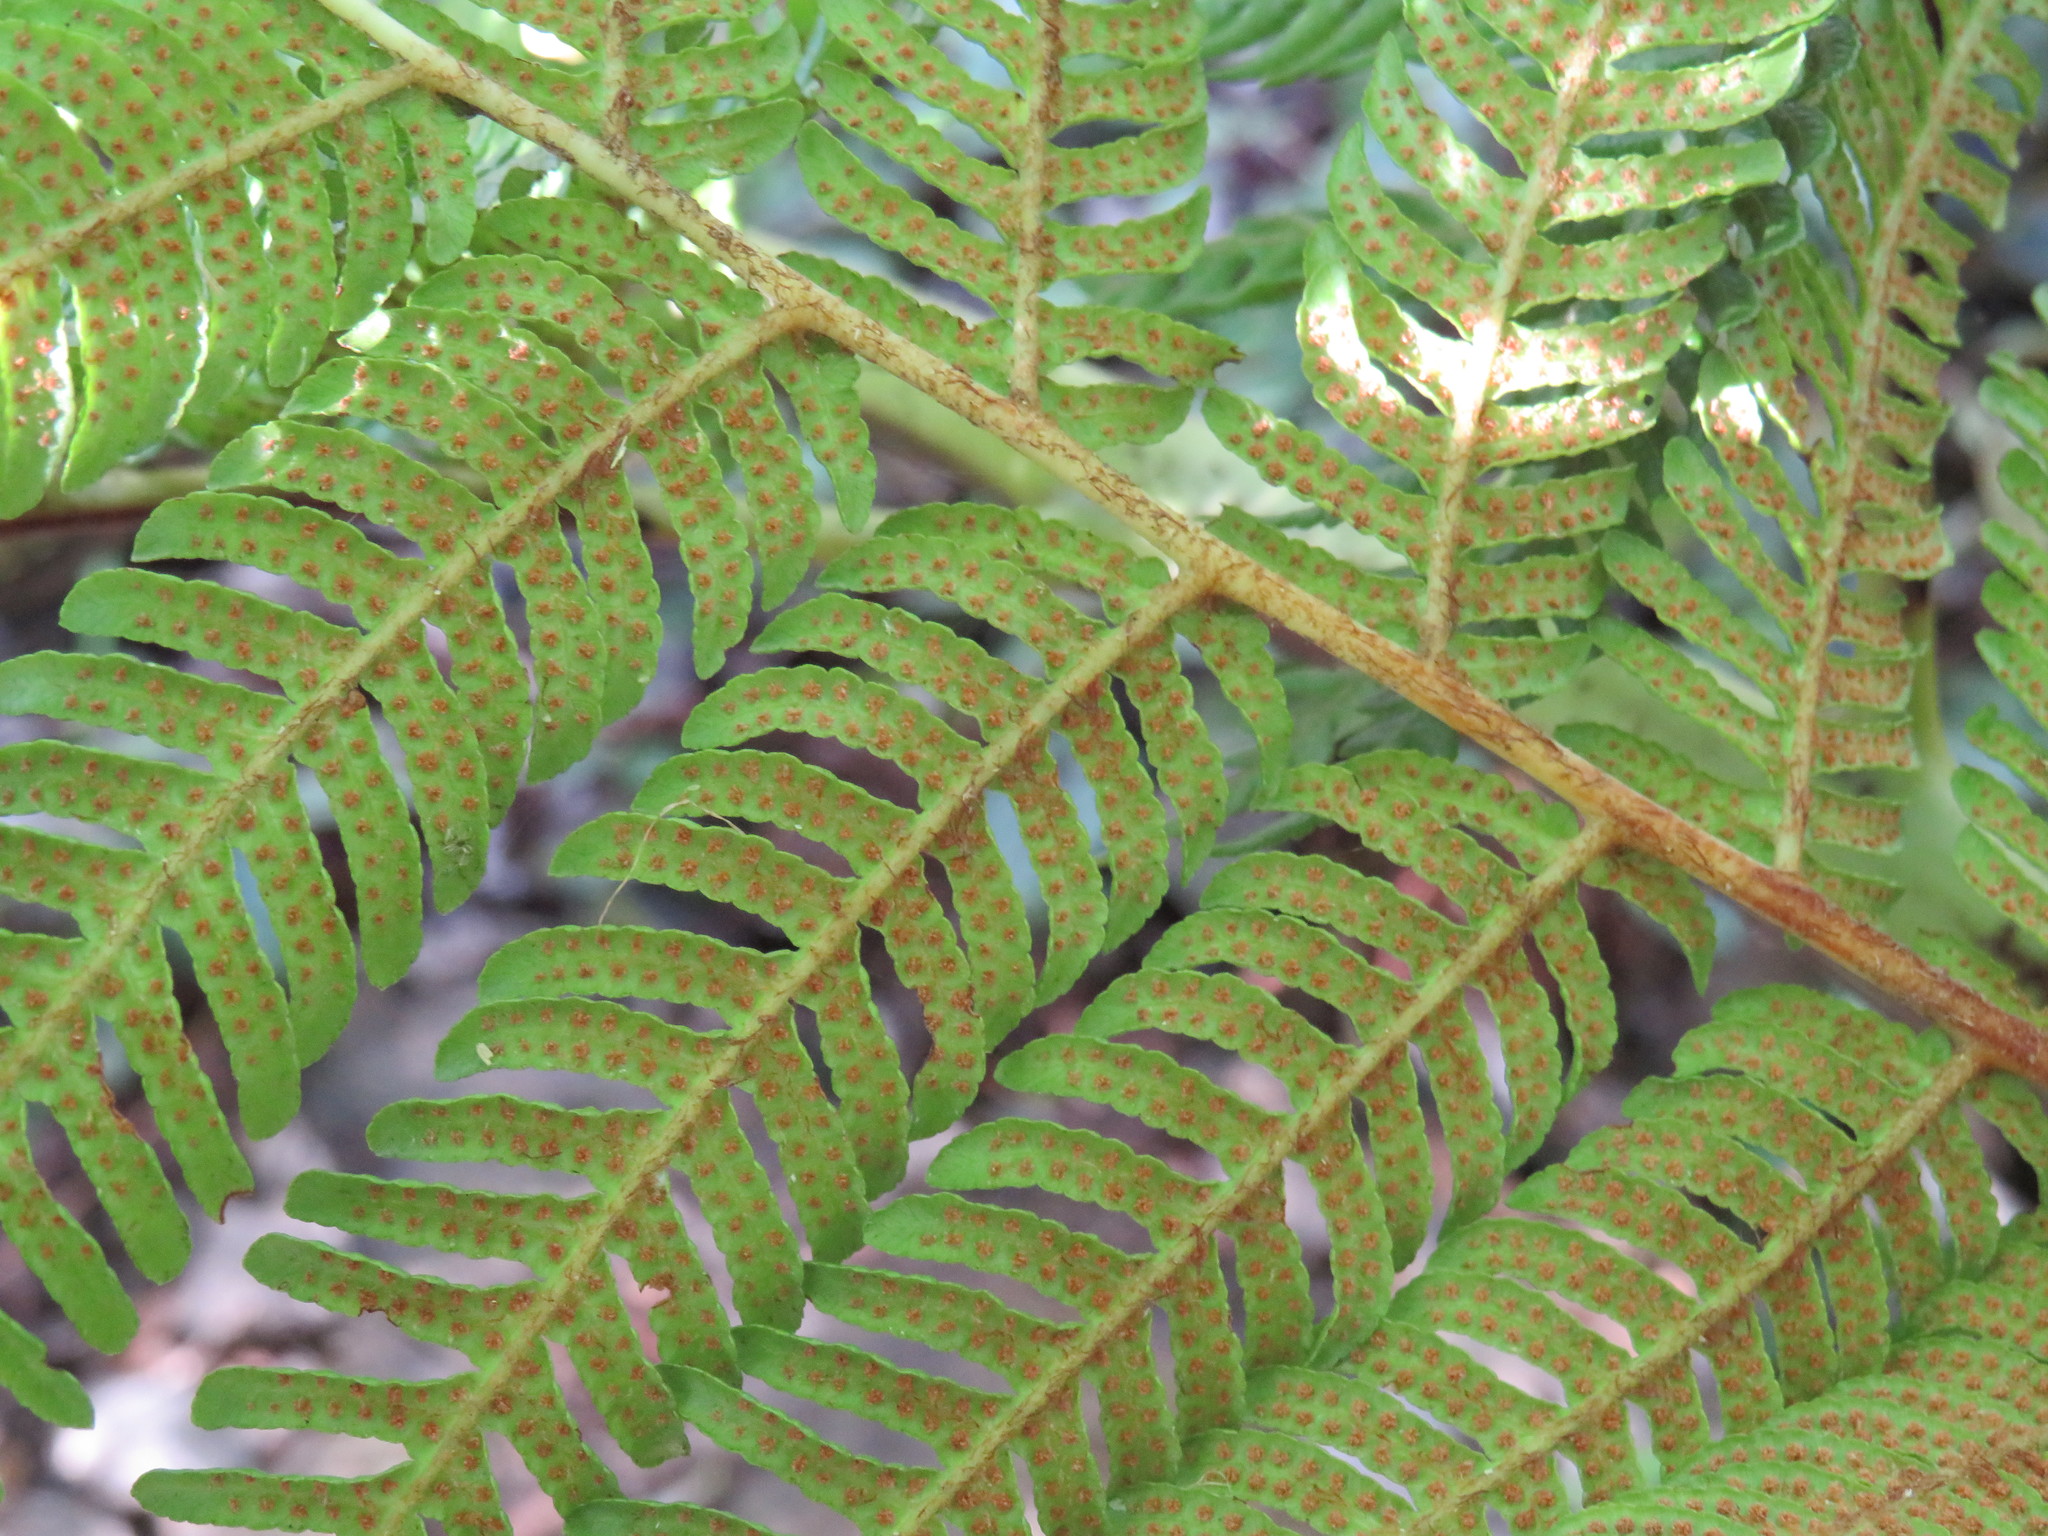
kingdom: Plantae
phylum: Tracheophyta
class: Polypodiopsida
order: Cyatheales
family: Cyatheaceae
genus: Sphaeropteris
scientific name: Sphaeropteris cooperi
